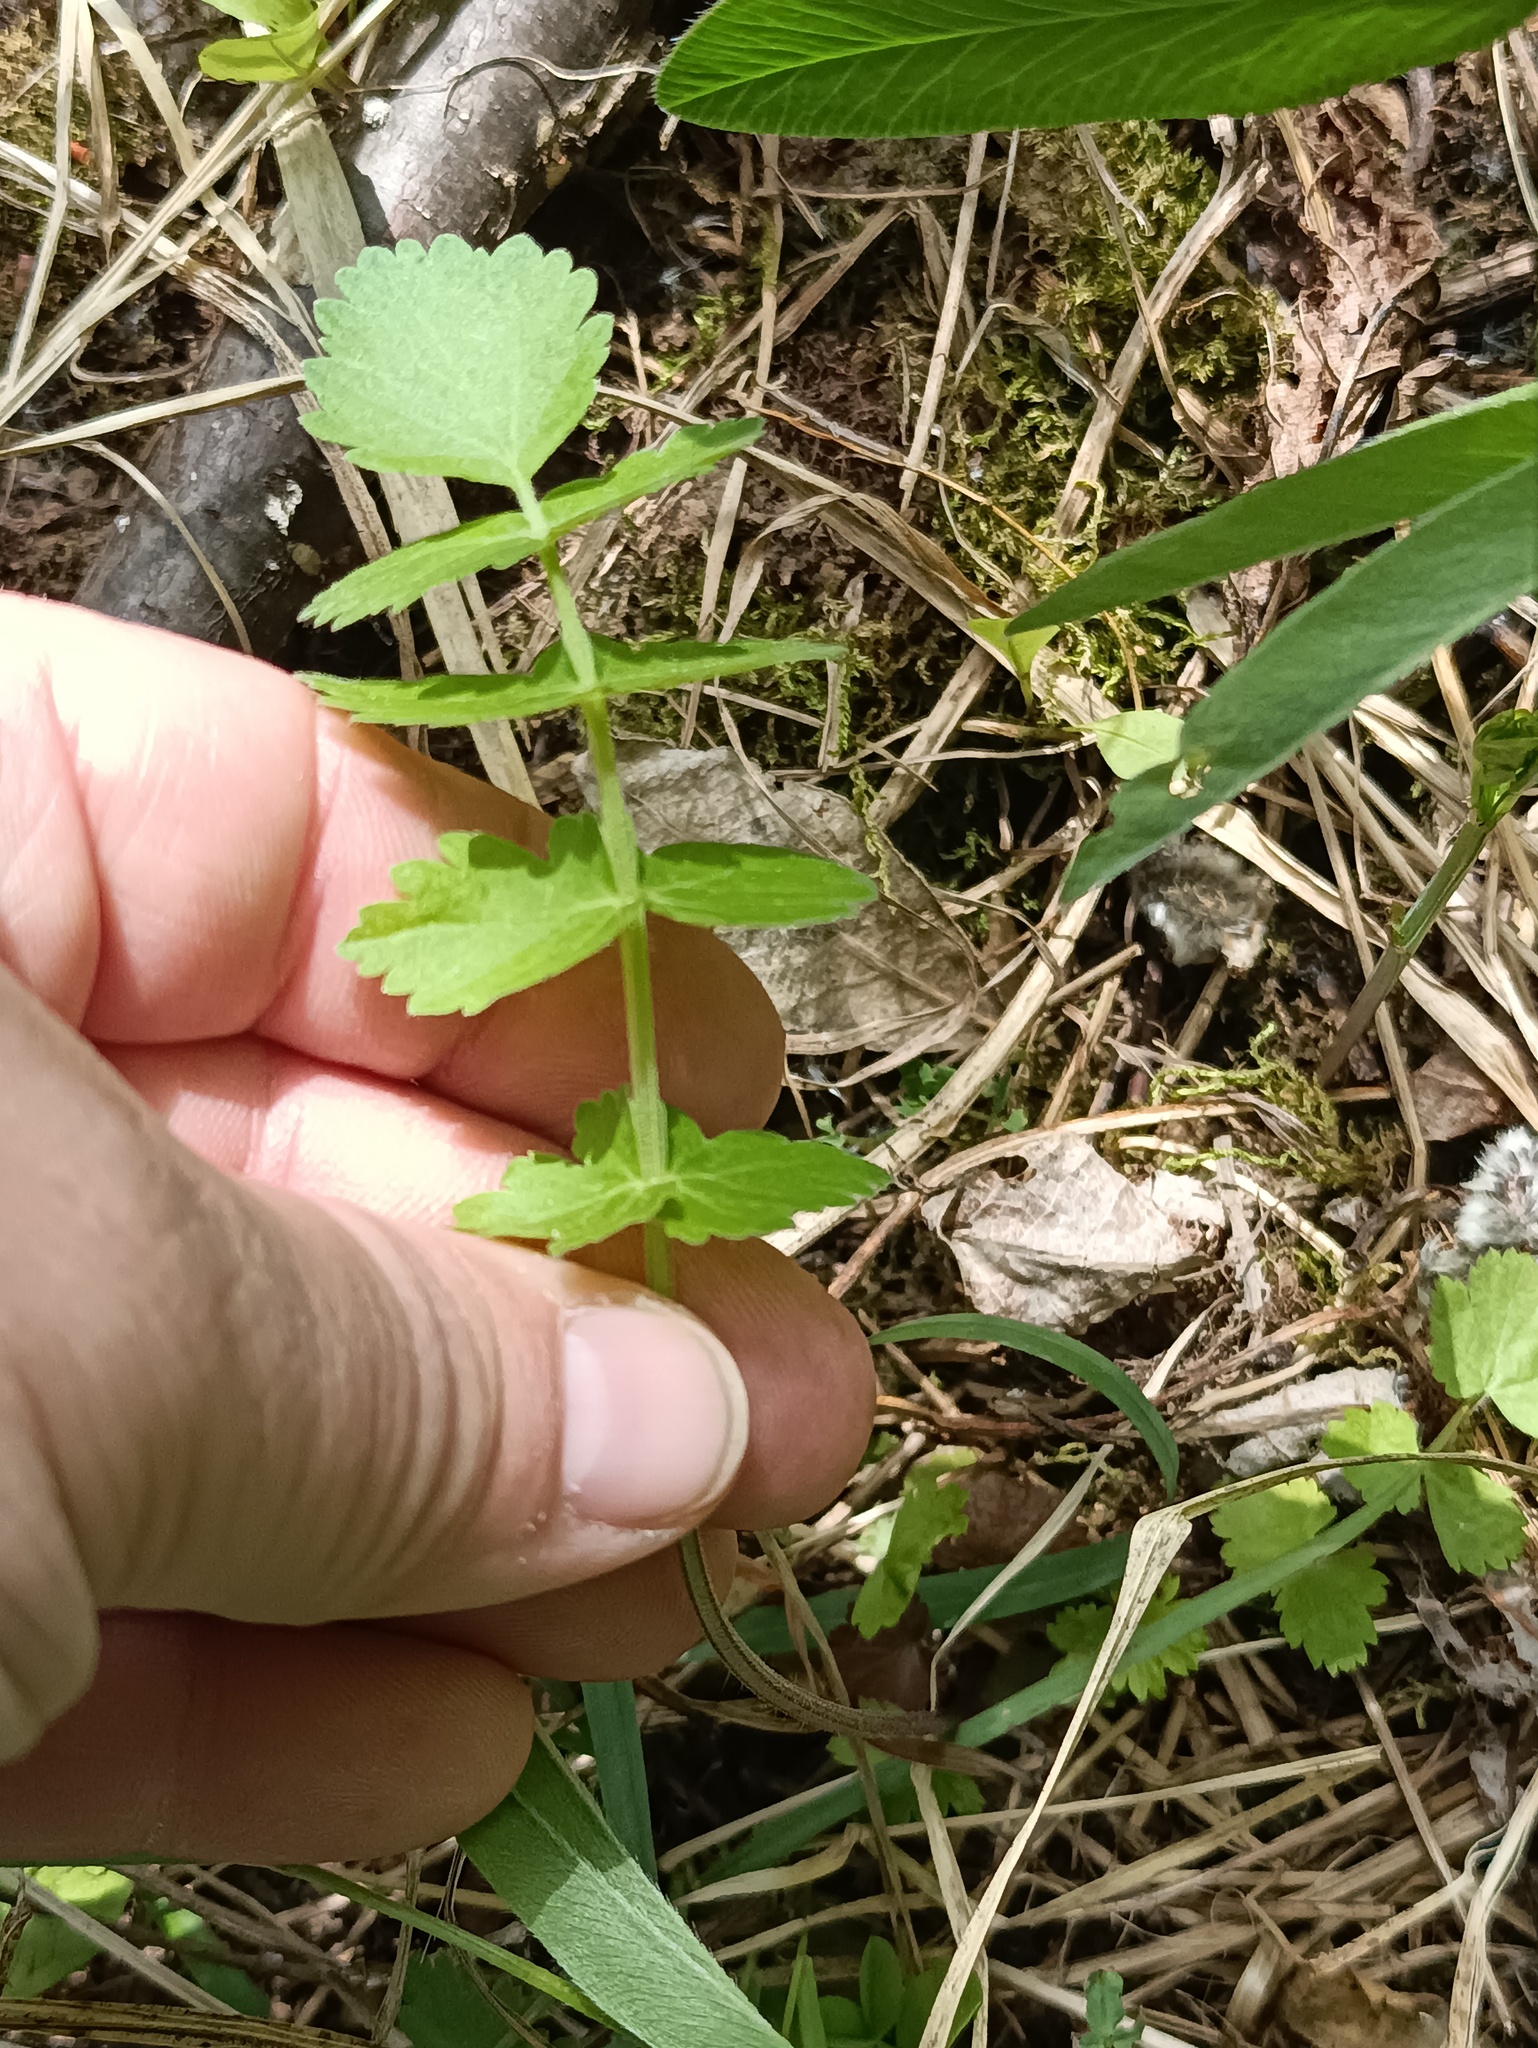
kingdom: Plantae
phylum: Tracheophyta
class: Magnoliopsida
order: Apiales
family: Apiaceae
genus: Pimpinella
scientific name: Pimpinella saxifraga
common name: Burnet-saxifrage
